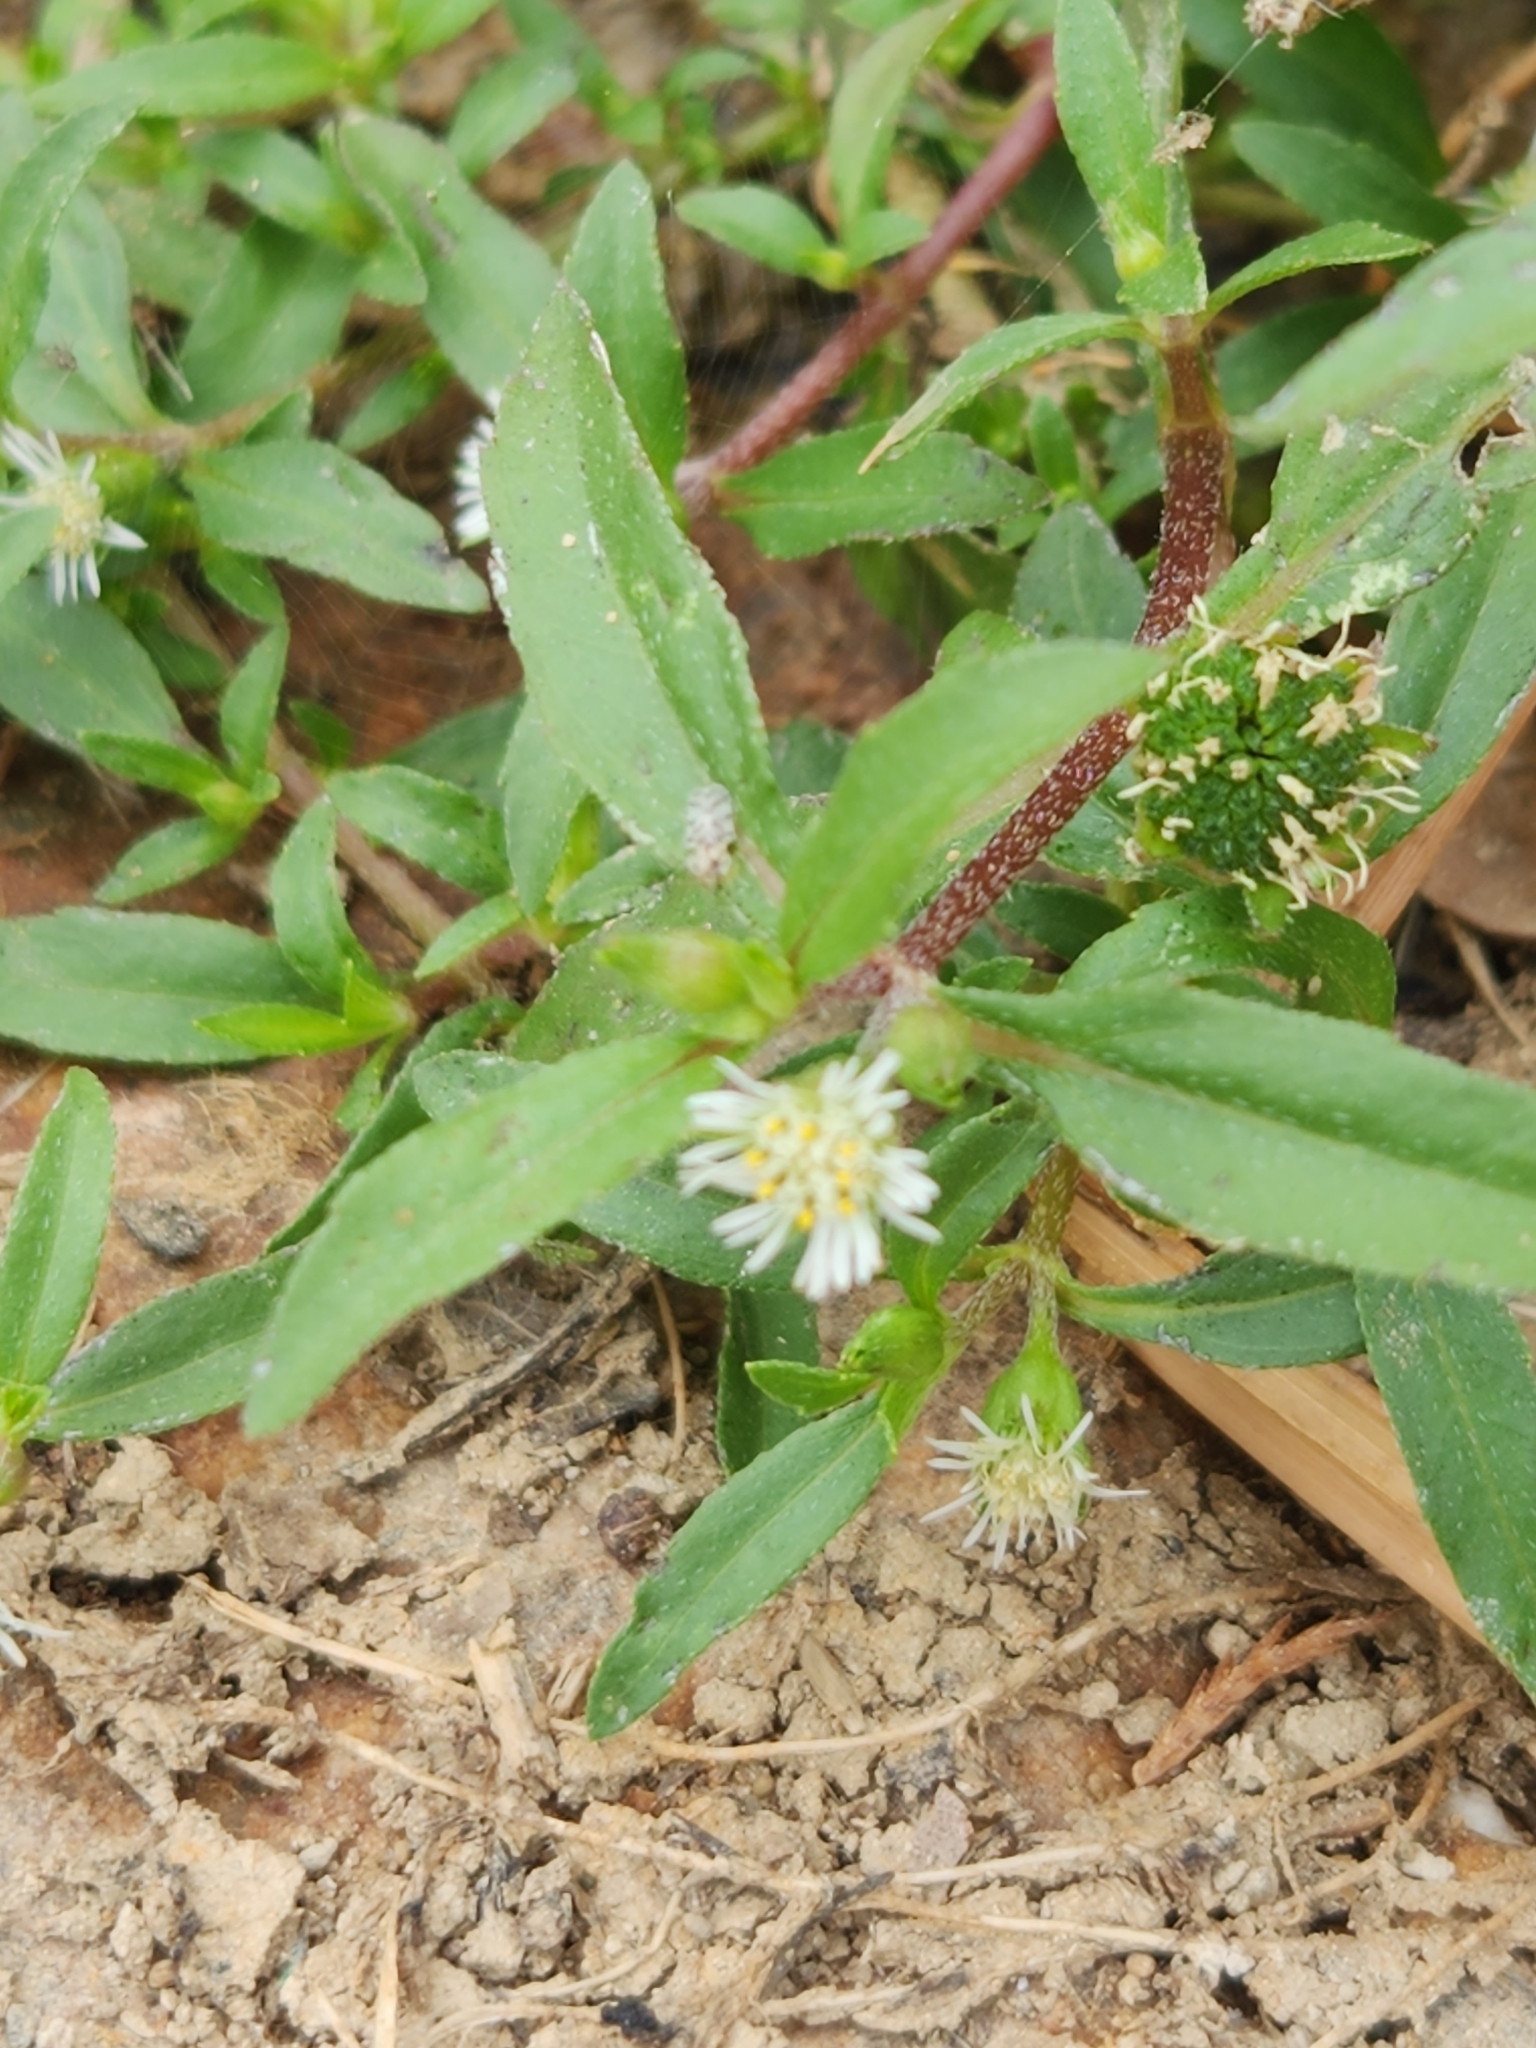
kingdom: Plantae
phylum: Tracheophyta
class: Magnoliopsida
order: Asterales
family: Asteraceae
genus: Eclipta
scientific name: Eclipta prostrata
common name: False daisy
